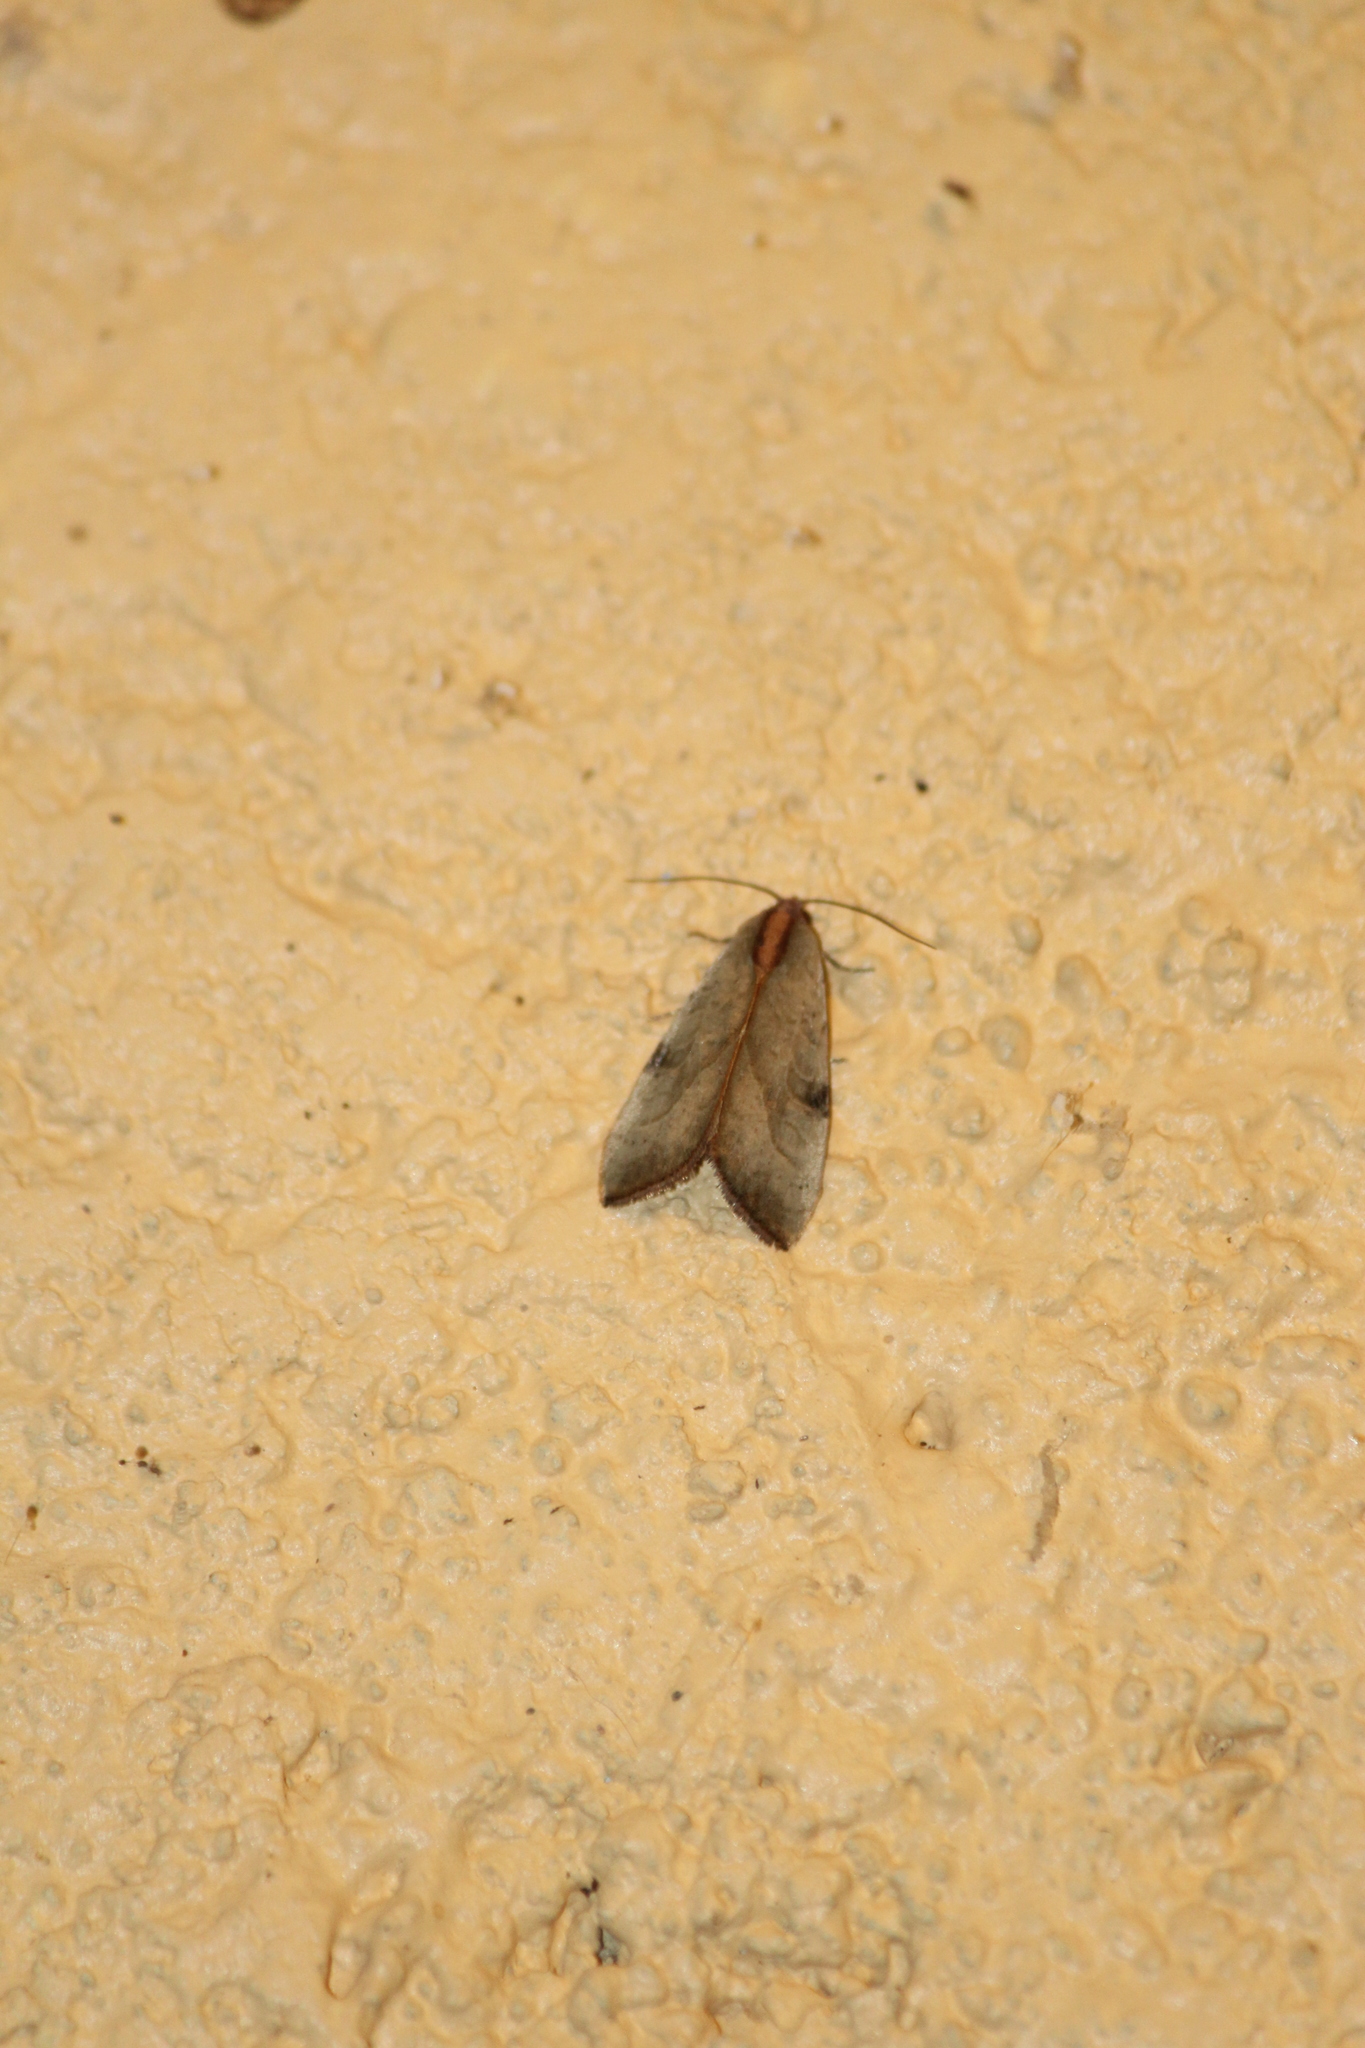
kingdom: Animalia
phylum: Arthropoda
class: Insecta
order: Lepidoptera
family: Noctuidae
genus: Galgula
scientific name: Galgula partita
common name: Wedgeling
